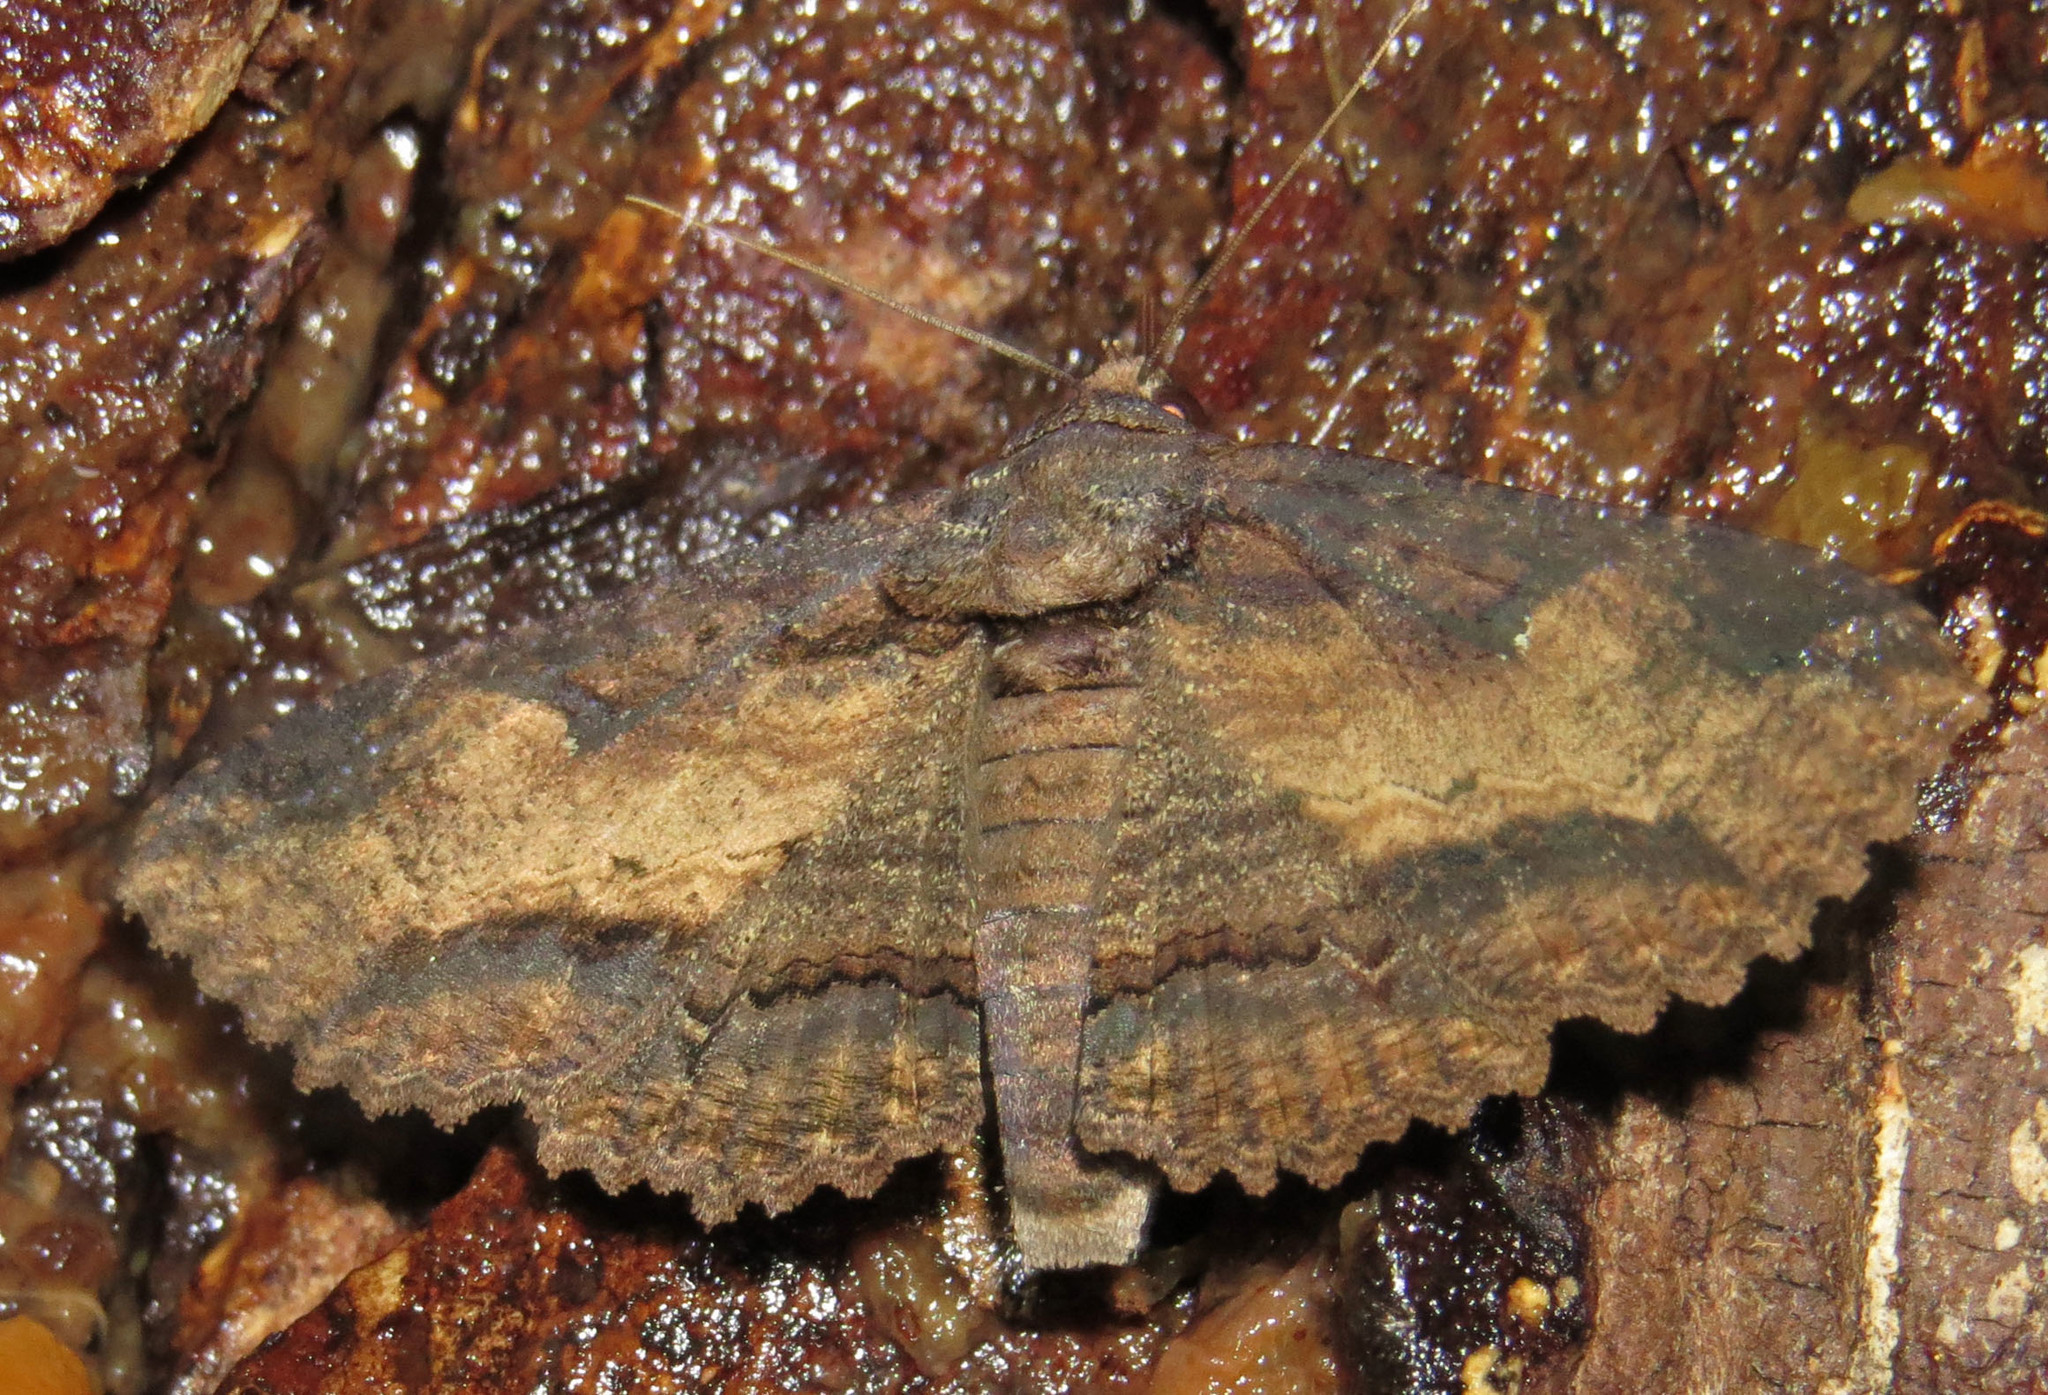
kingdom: Animalia
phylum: Arthropoda
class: Insecta
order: Lepidoptera
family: Erebidae
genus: Zale
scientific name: Zale lunata
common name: Lunate zale moth
